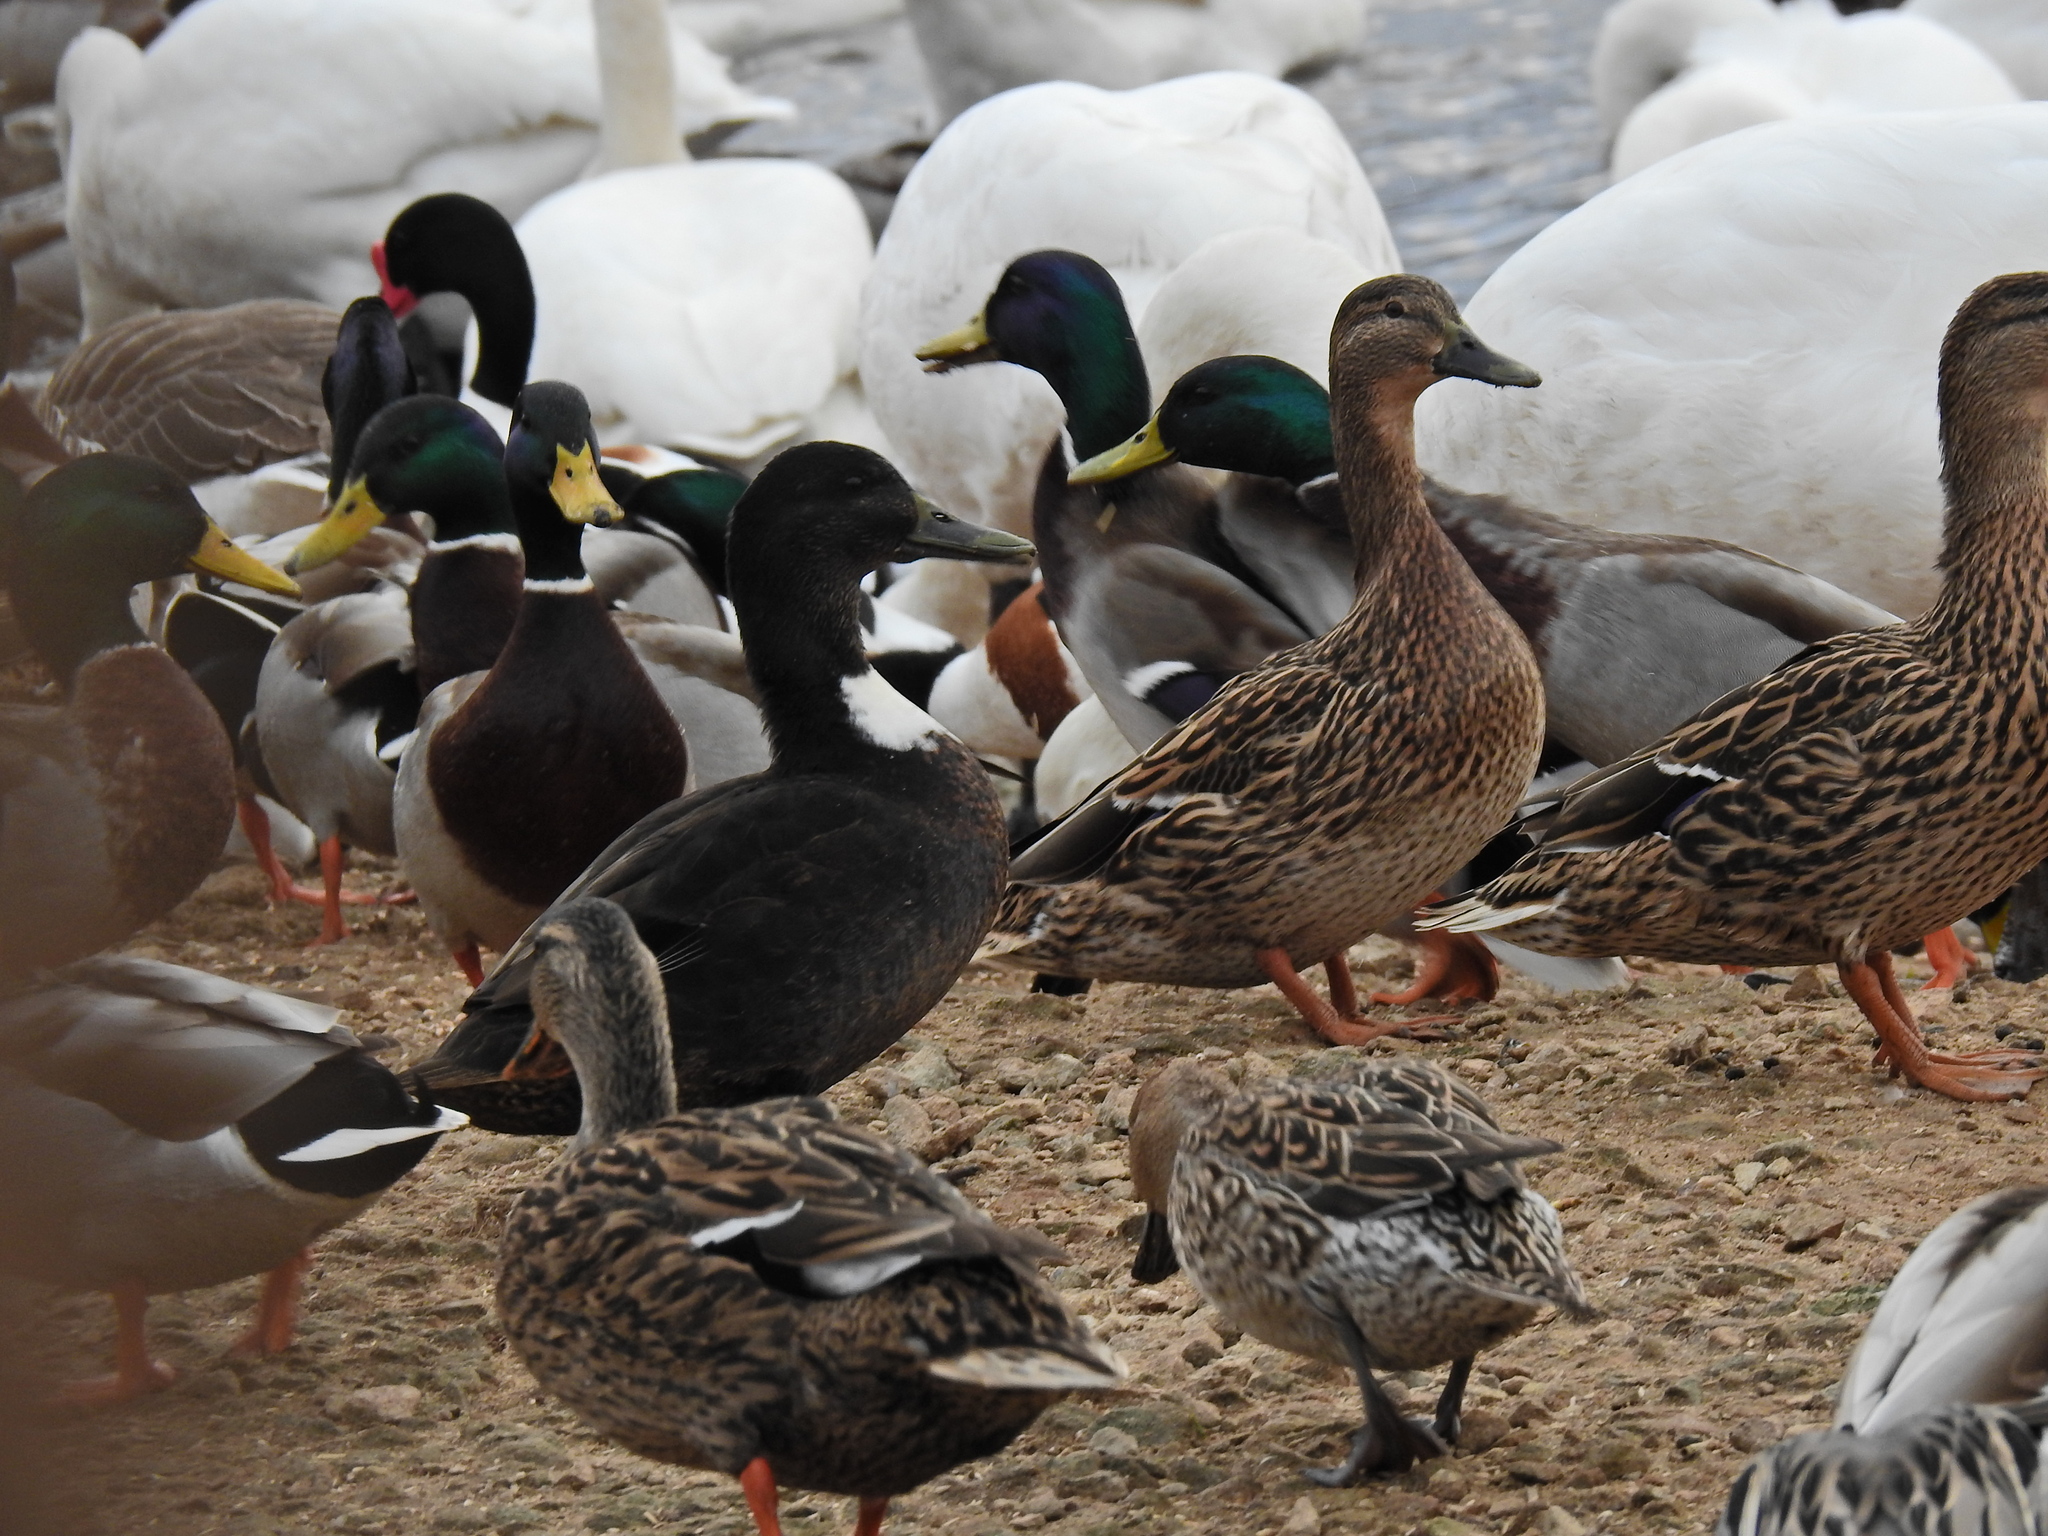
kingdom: Animalia
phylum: Chordata
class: Aves
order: Anseriformes
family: Anatidae
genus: Anas
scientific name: Anas platyrhynchos
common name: Mallard
